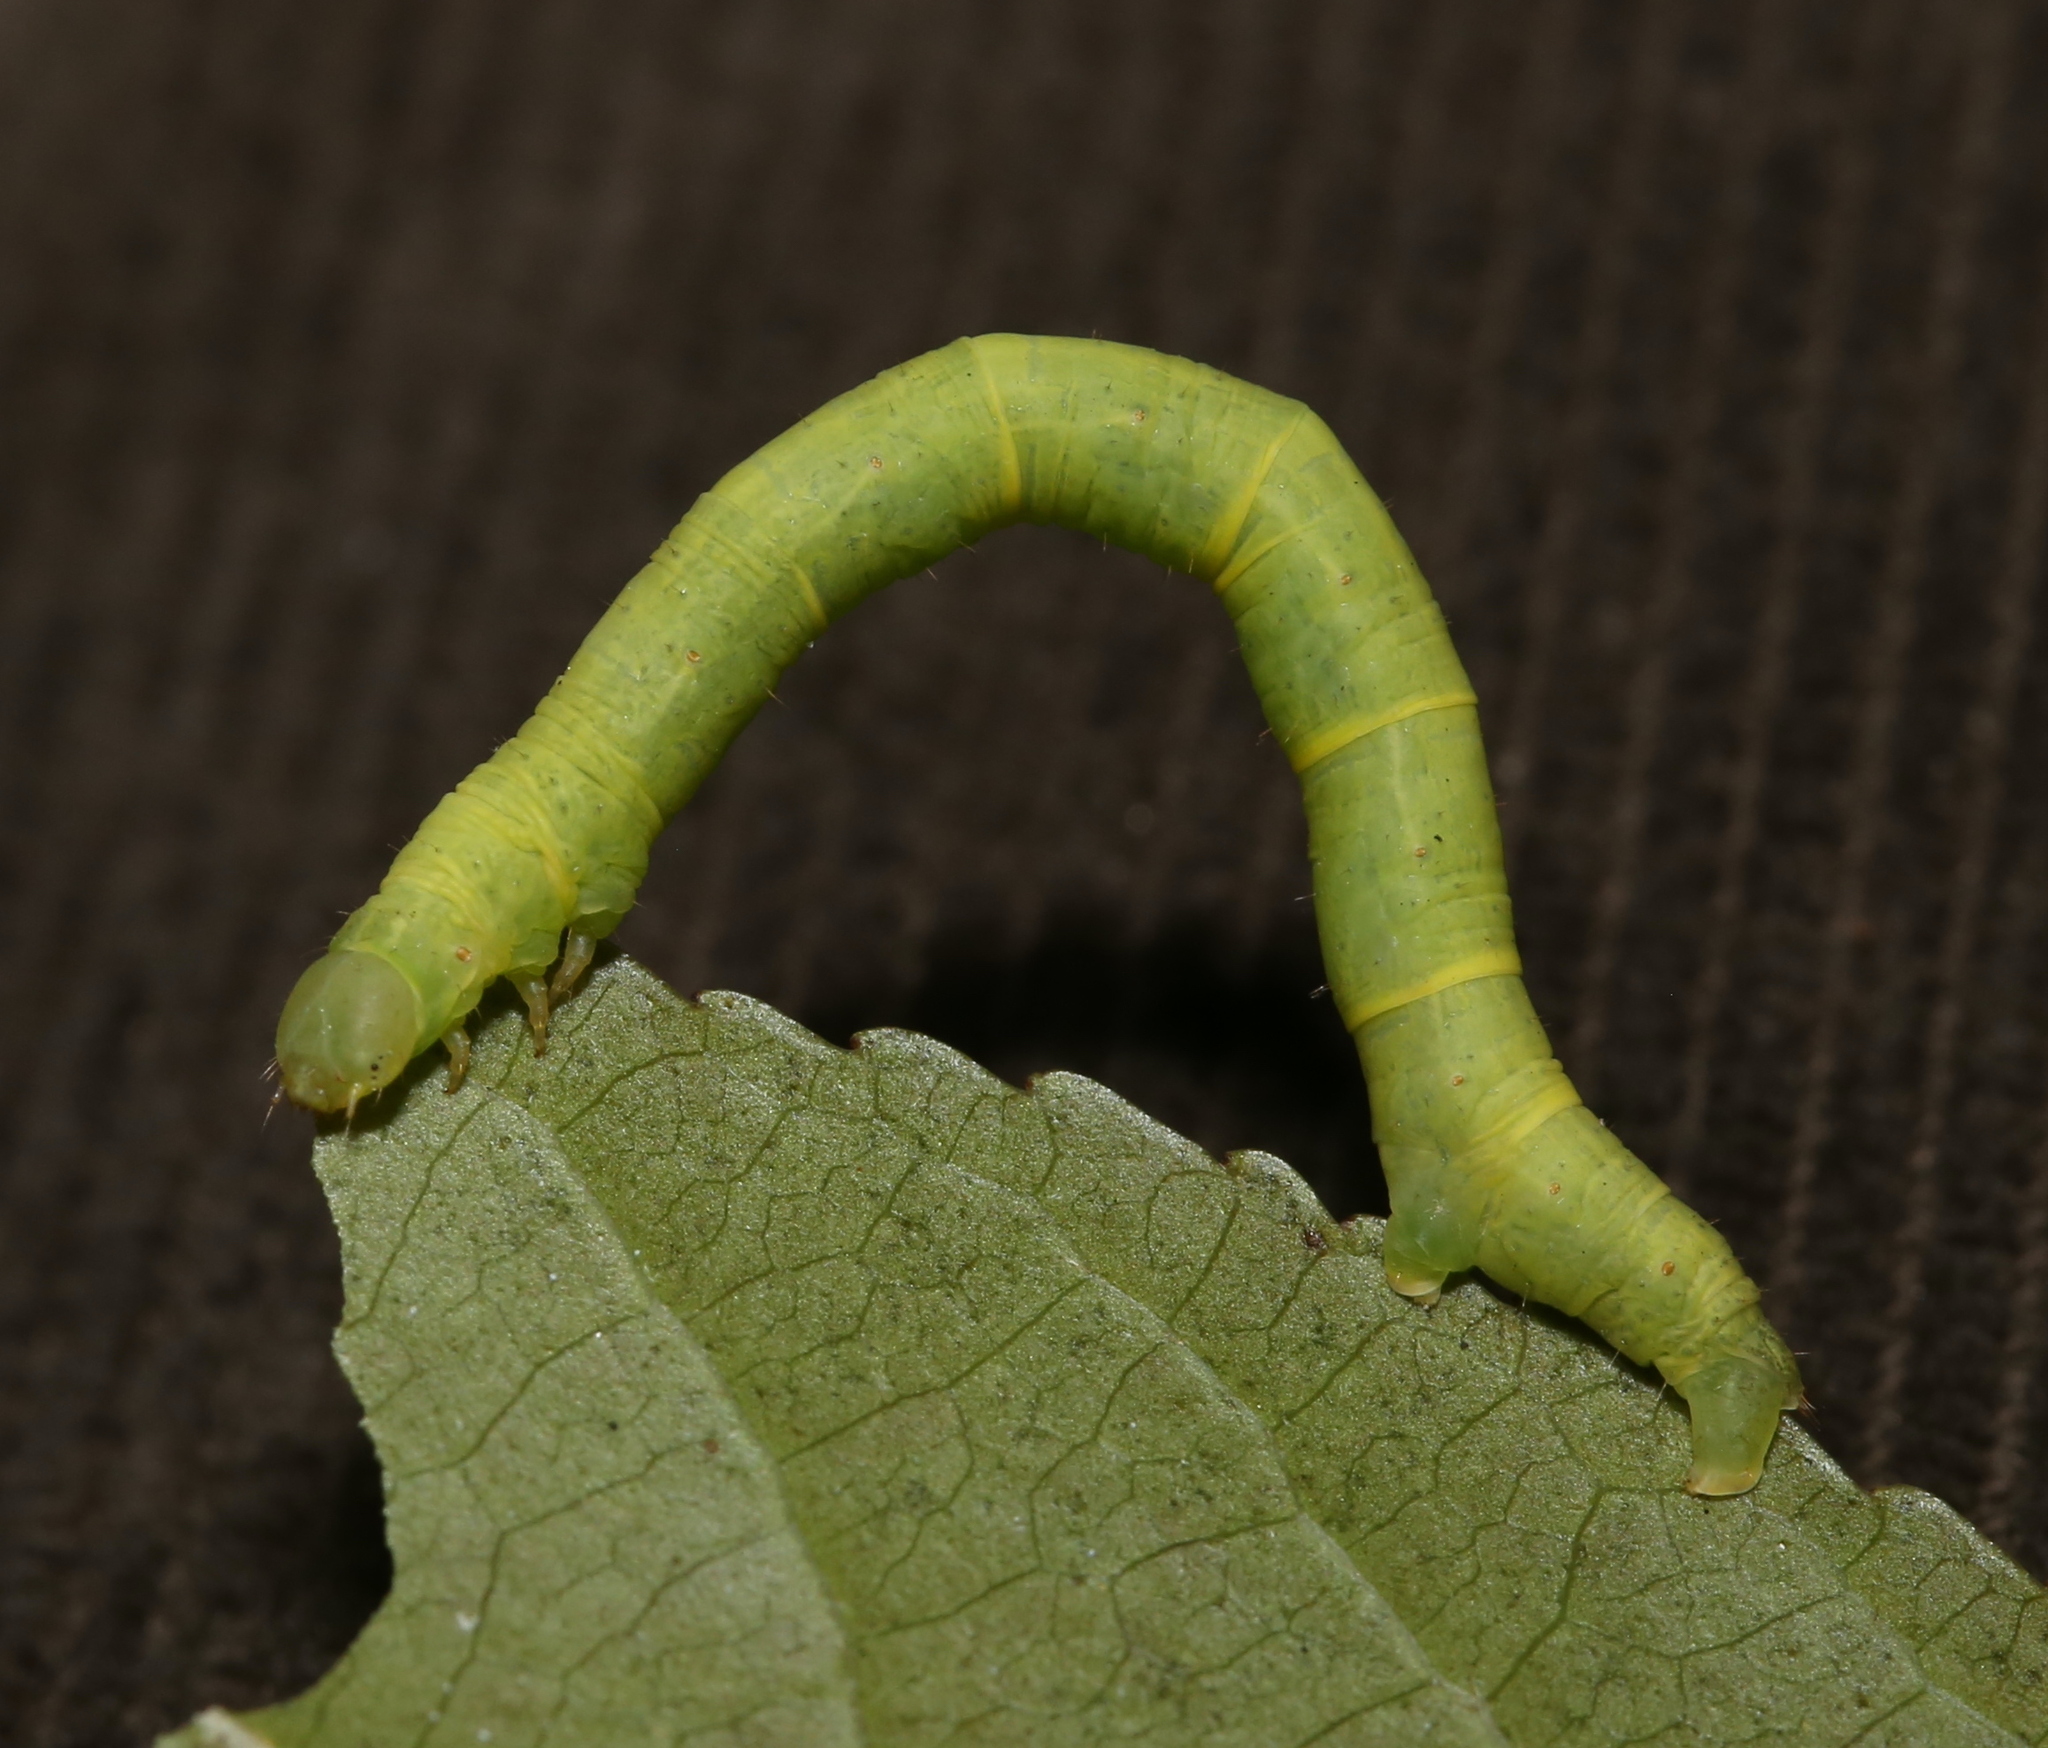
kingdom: Animalia
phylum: Arthropoda
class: Insecta
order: Lepidoptera
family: Geometridae
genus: Melanolophia
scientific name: Melanolophia canadaria
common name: Canadian melanolophia
